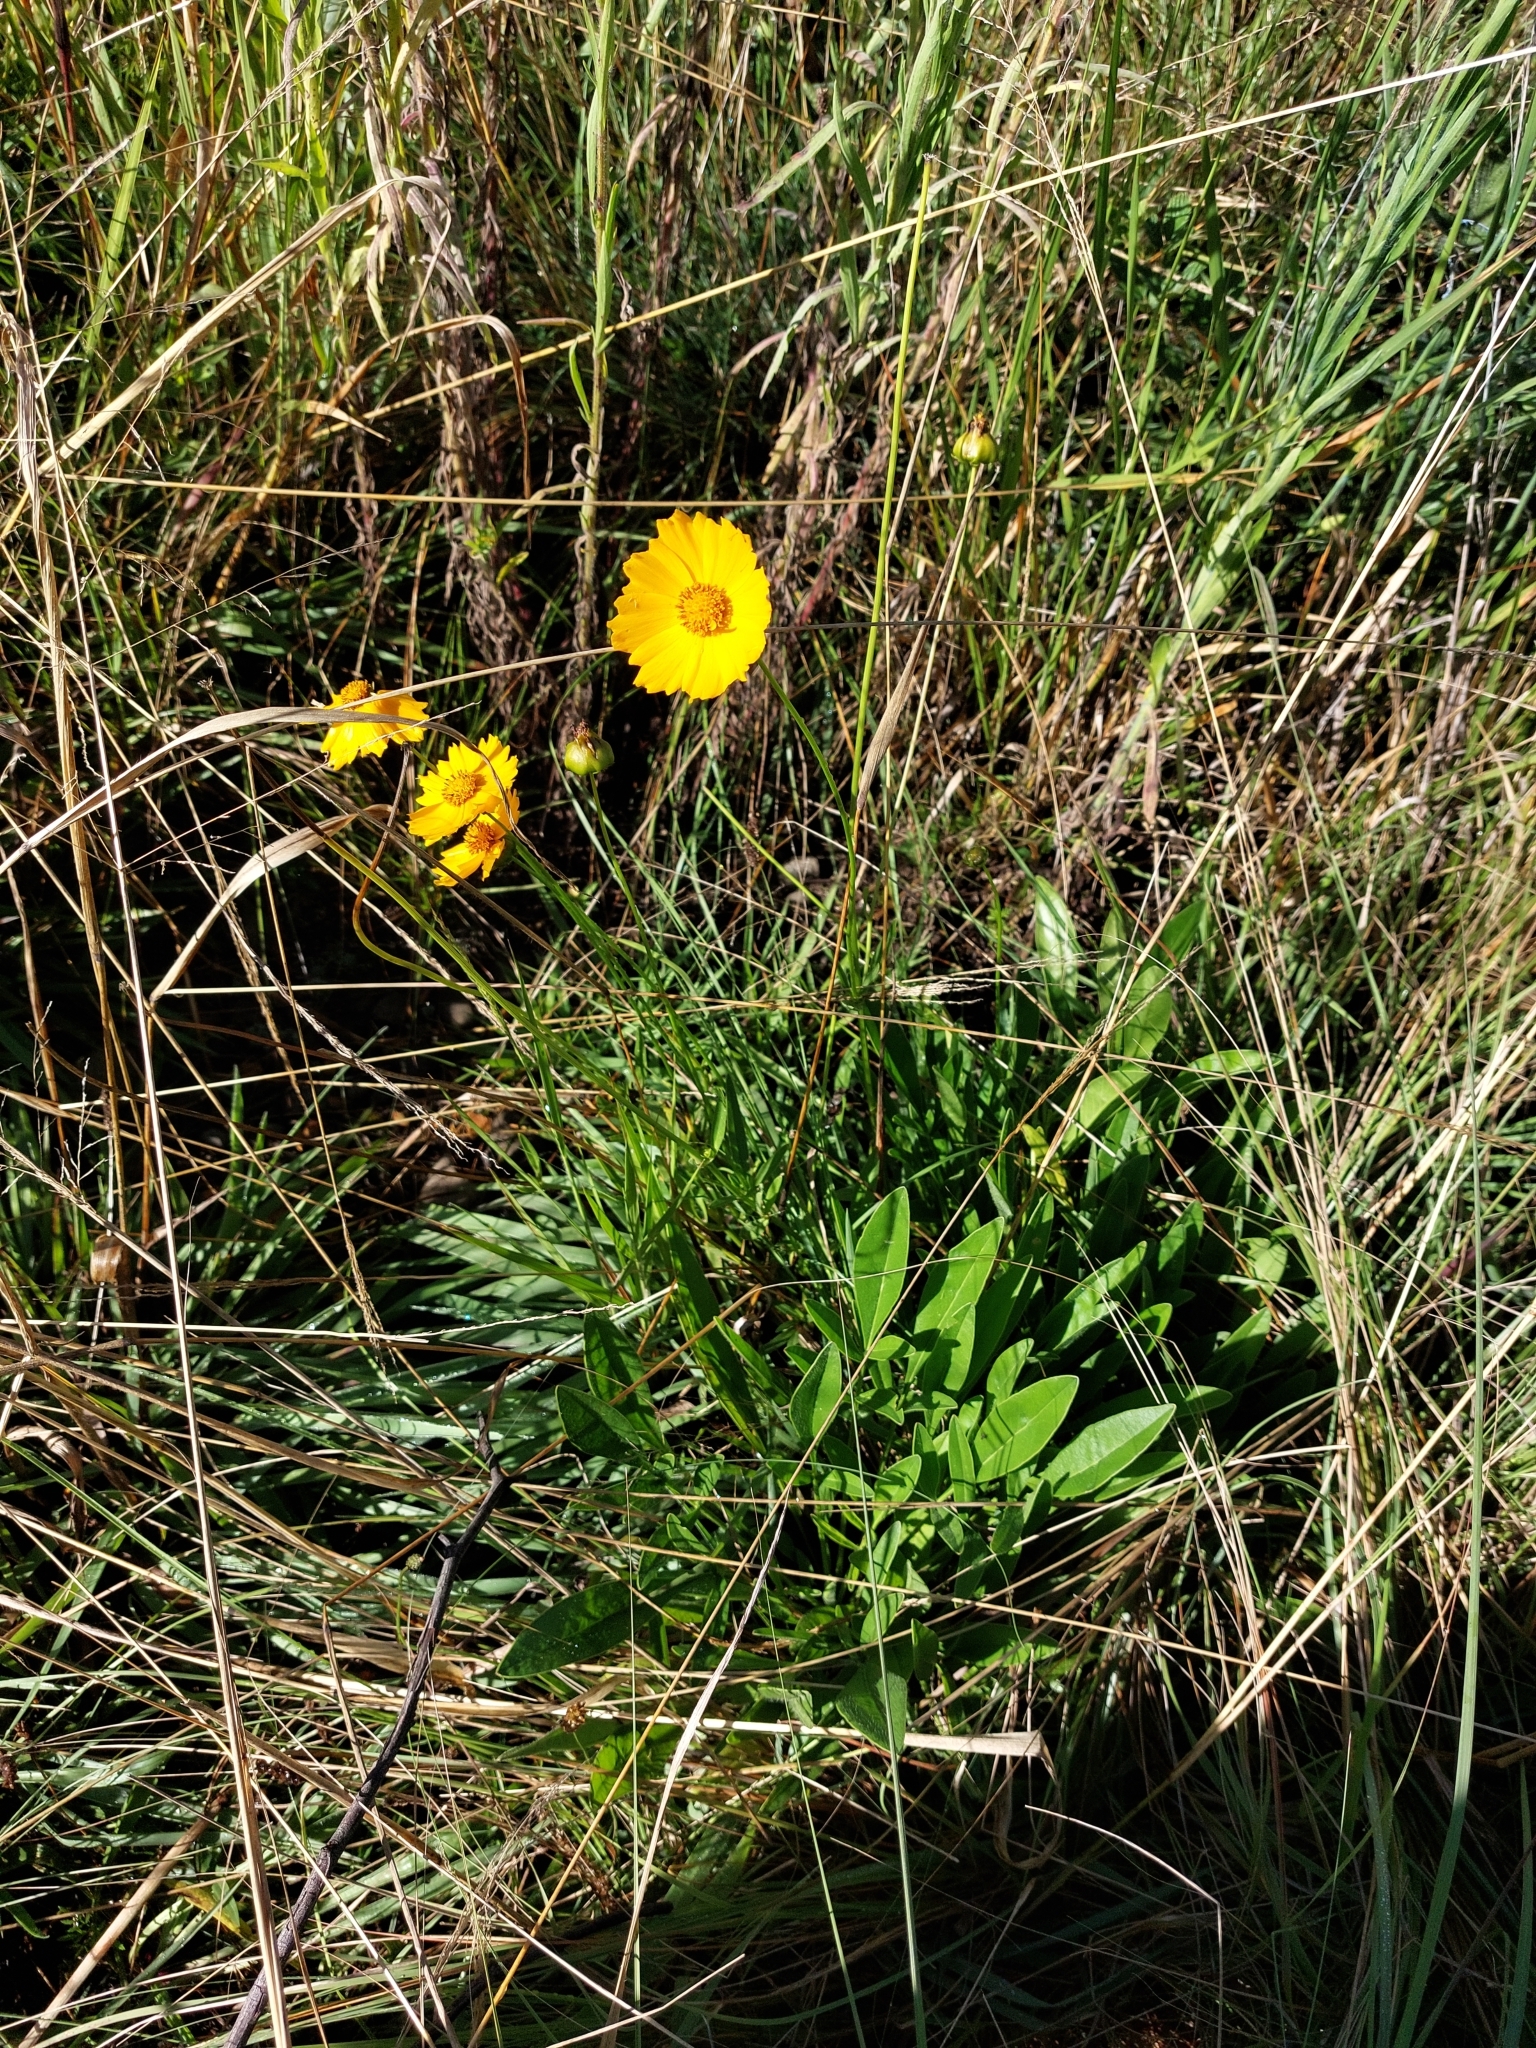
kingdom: Plantae
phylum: Tracheophyta
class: Magnoliopsida
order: Asterales
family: Asteraceae
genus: Coreopsis
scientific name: Coreopsis lanceolata
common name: Garden coreopsis
